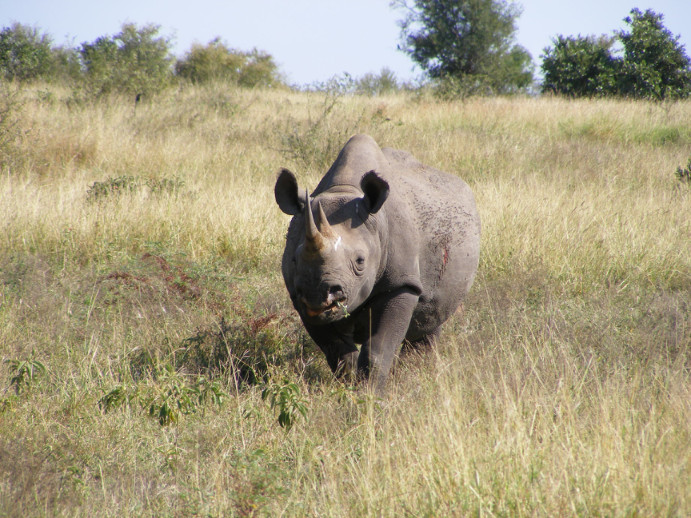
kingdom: Animalia
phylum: Chordata
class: Mammalia
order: Perissodactyla
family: Rhinocerotidae
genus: Diceros
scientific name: Diceros bicornis
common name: Black rhinoceros
